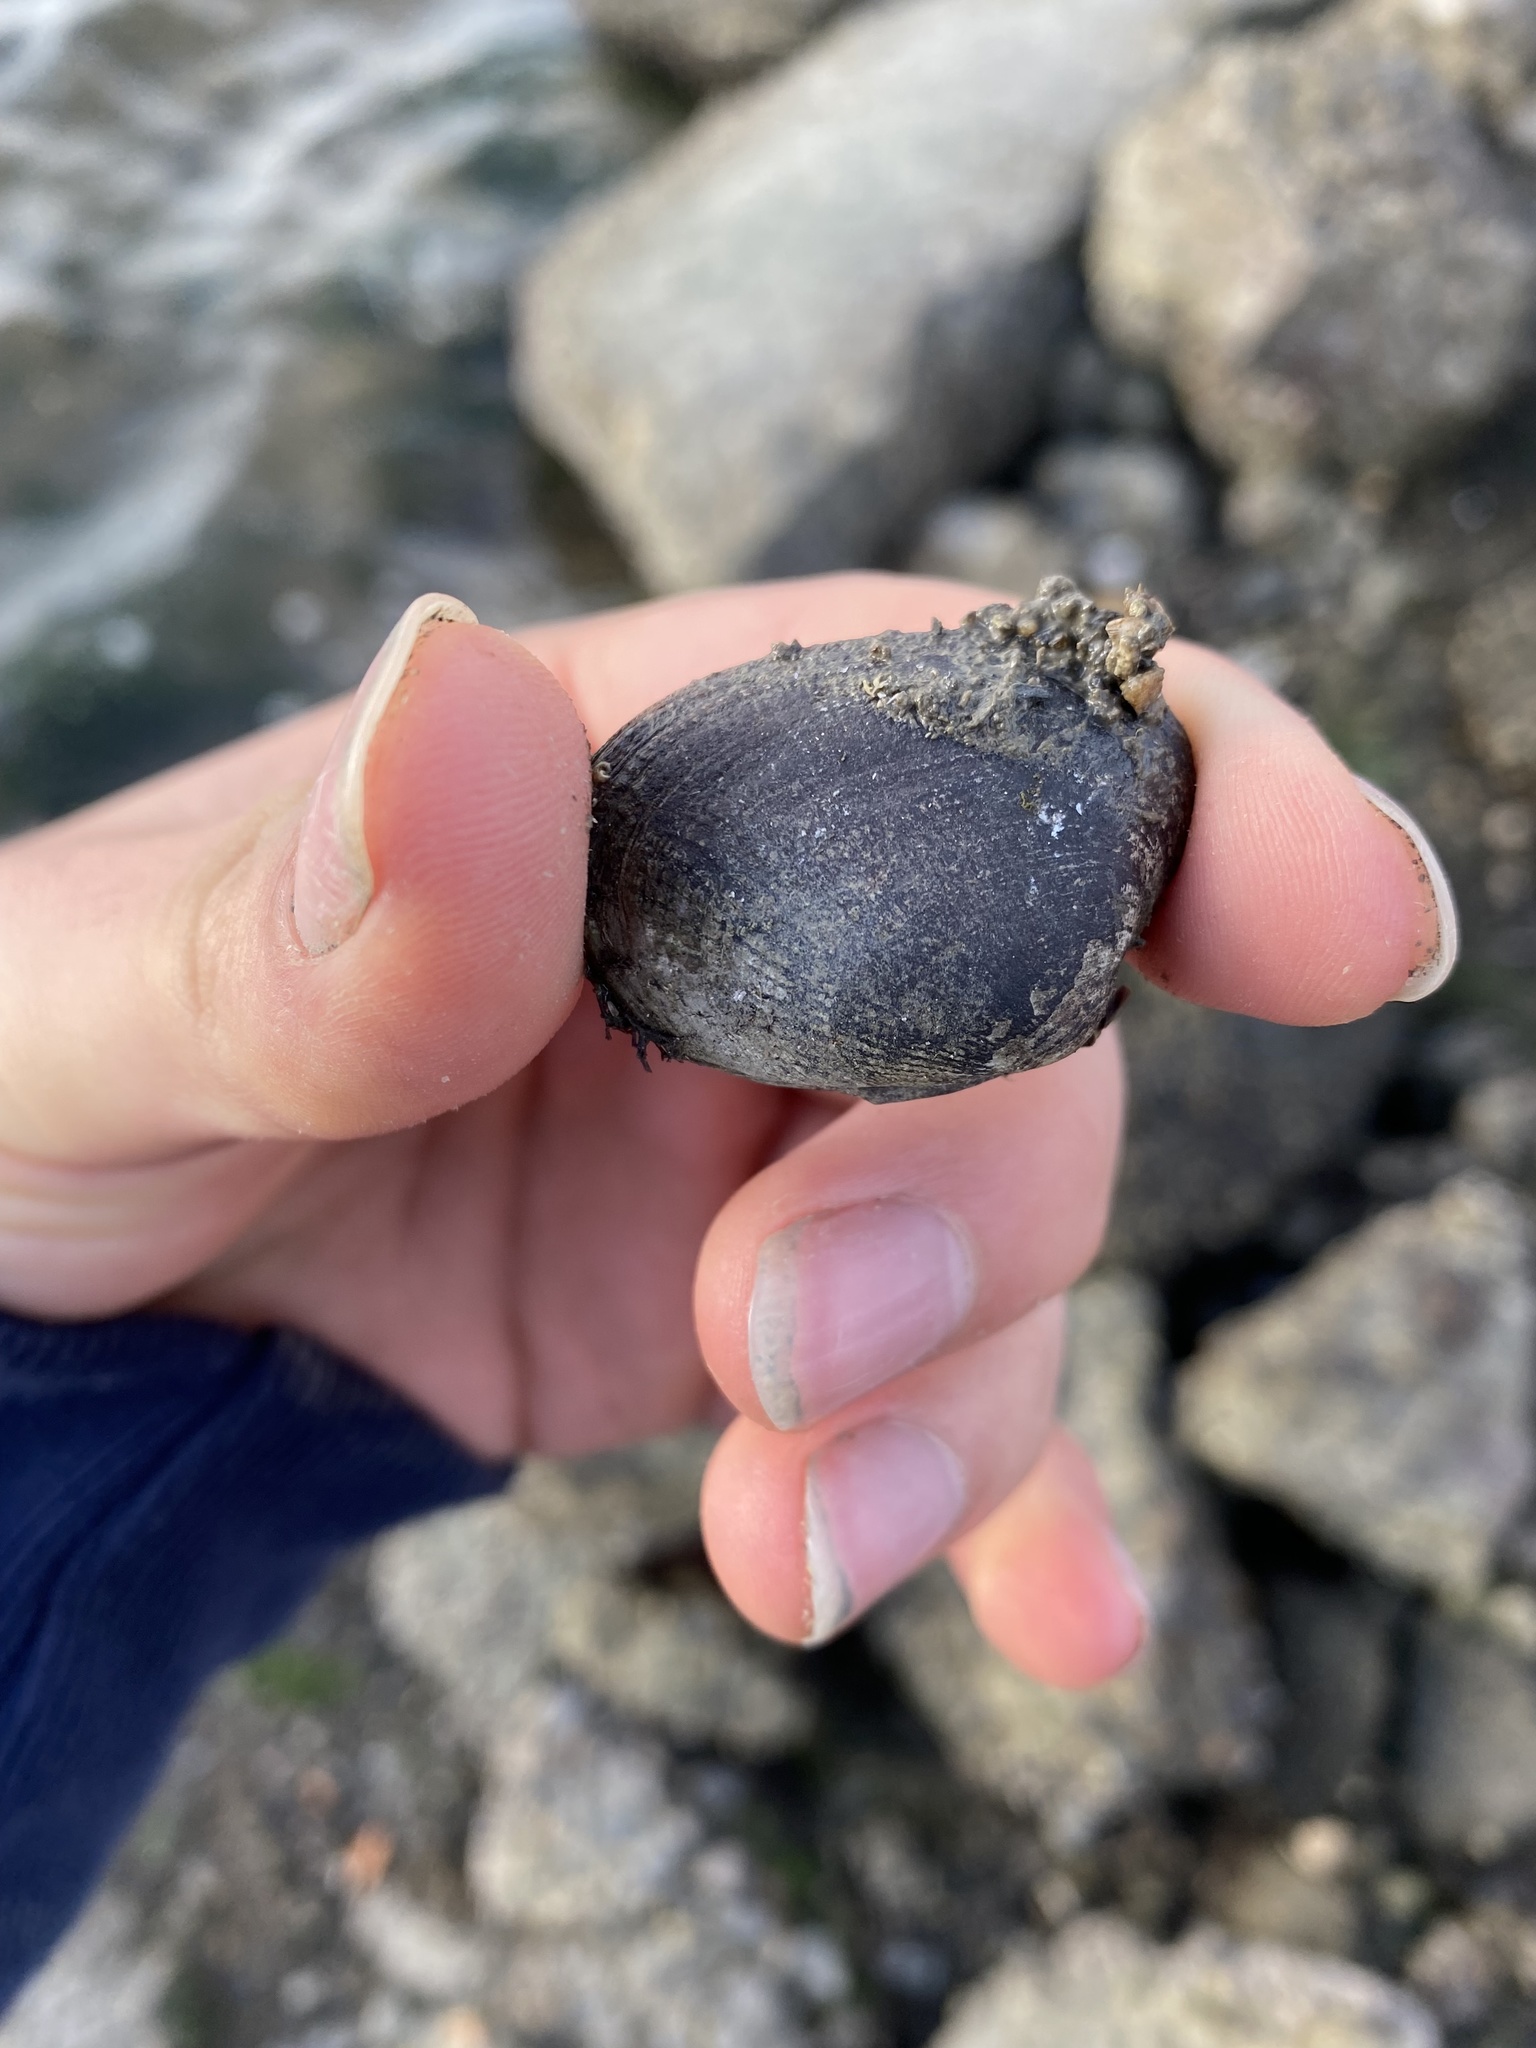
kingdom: Animalia
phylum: Mollusca
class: Bivalvia
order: Venerida
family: Veneridae
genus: Ruditapes
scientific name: Ruditapes philippinarum
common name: Manila clam
